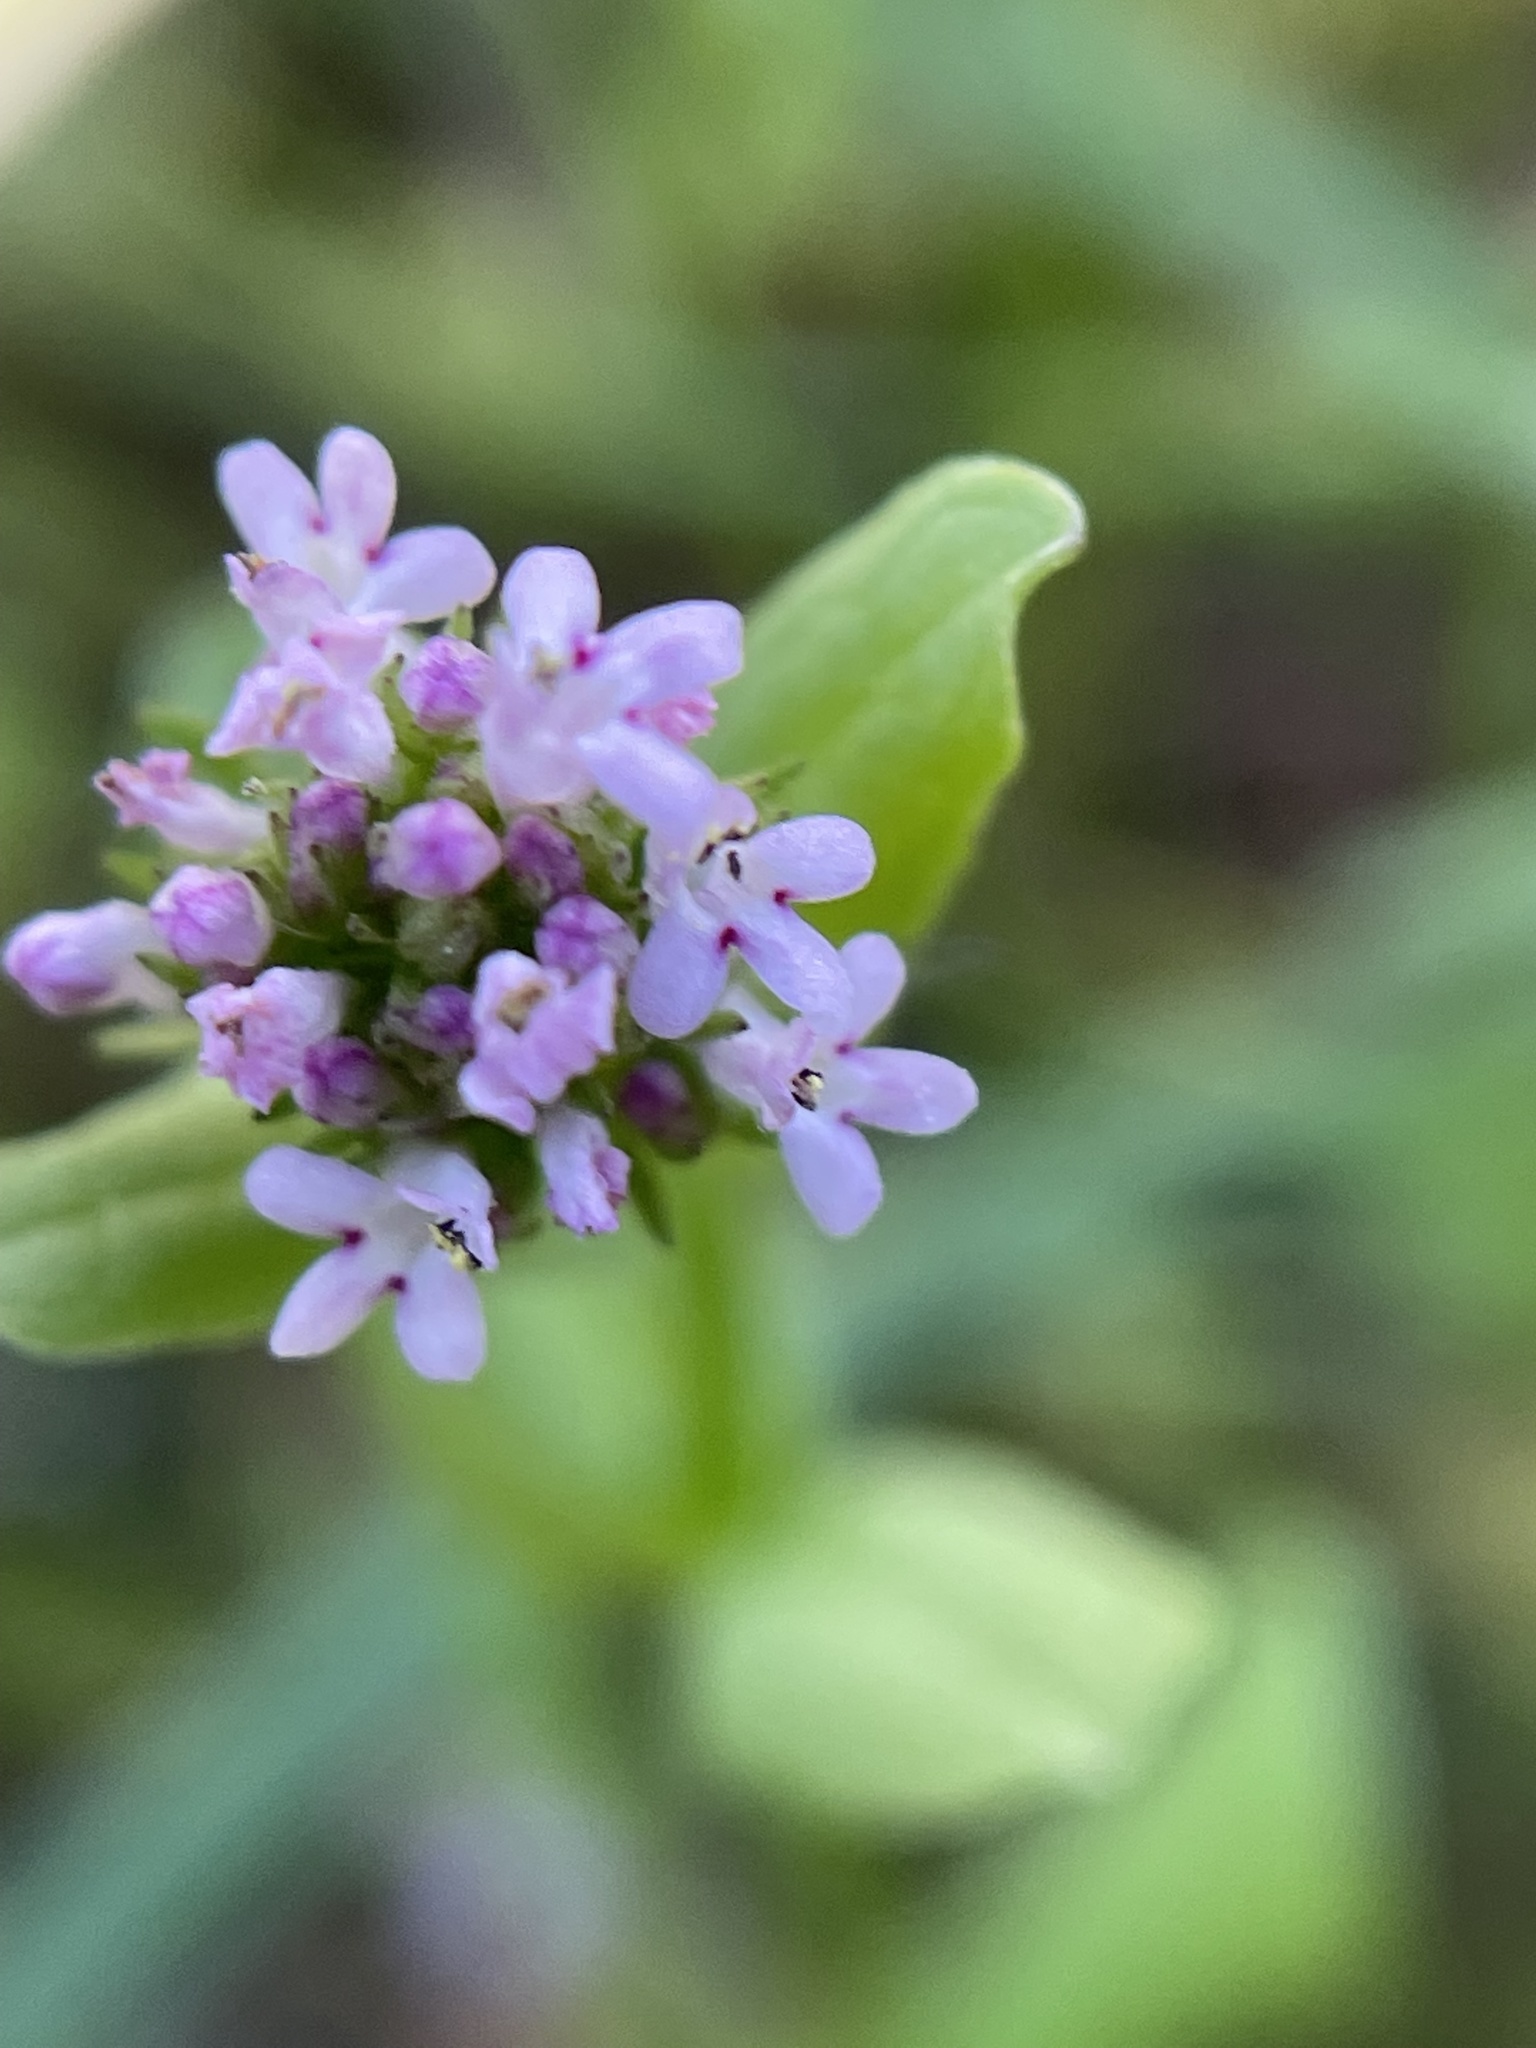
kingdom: Plantae
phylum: Tracheophyta
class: Magnoliopsida
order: Dipsacales
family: Caprifoliaceae
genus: Plectritis
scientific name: Plectritis ciliosa
